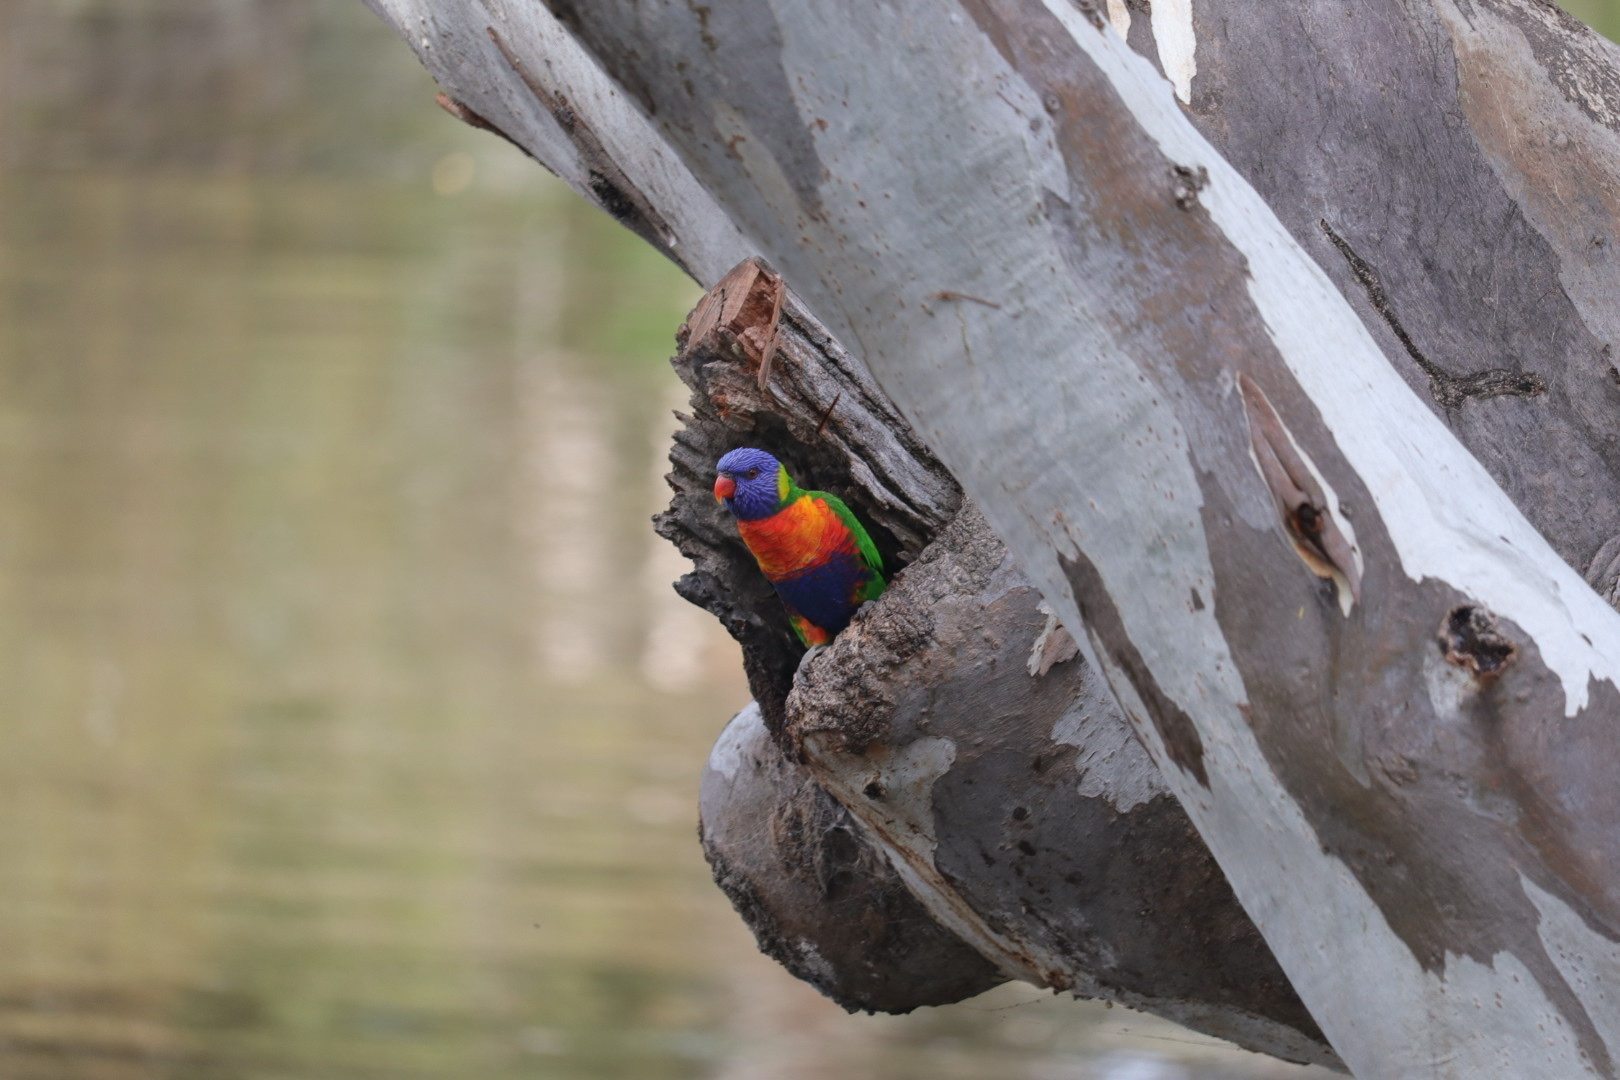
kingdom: Animalia
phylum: Chordata
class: Aves
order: Psittaciformes
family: Psittacidae
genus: Trichoglossus
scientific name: Trichoglossus haematodus
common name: Coconut lorikeet
